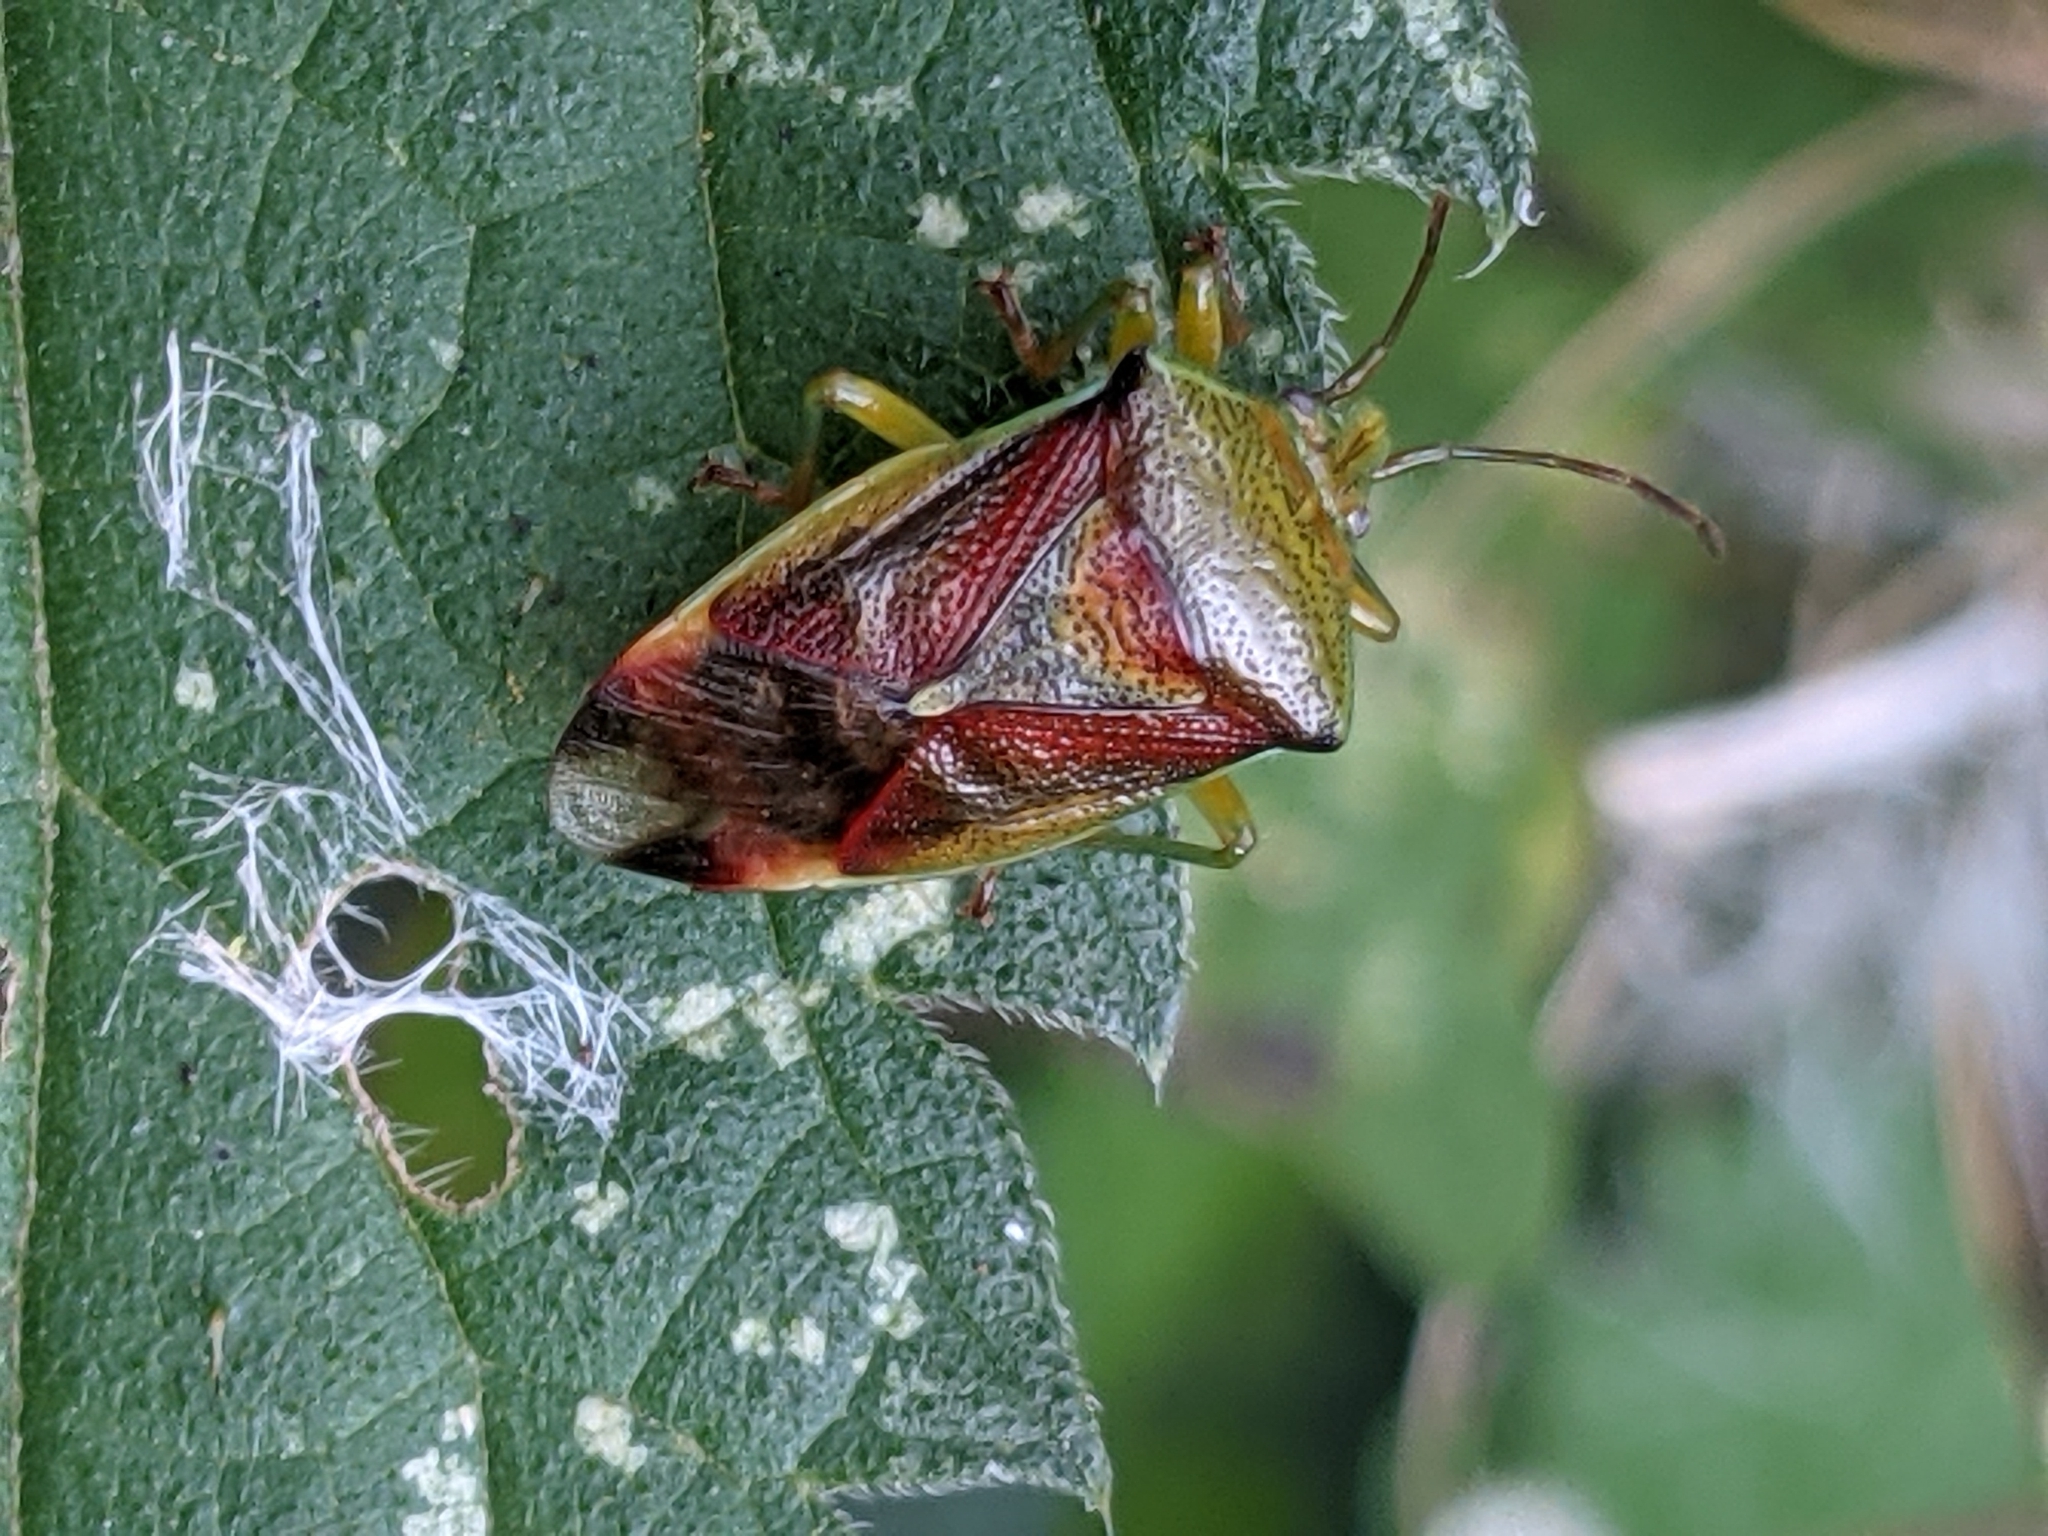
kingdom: Animalia
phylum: Arthropoda
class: Insecta
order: Hemiptera
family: Acanthosomatidae
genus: Elasmostethus
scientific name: Elasmostethus interstinctus
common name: Birch shieldbug
